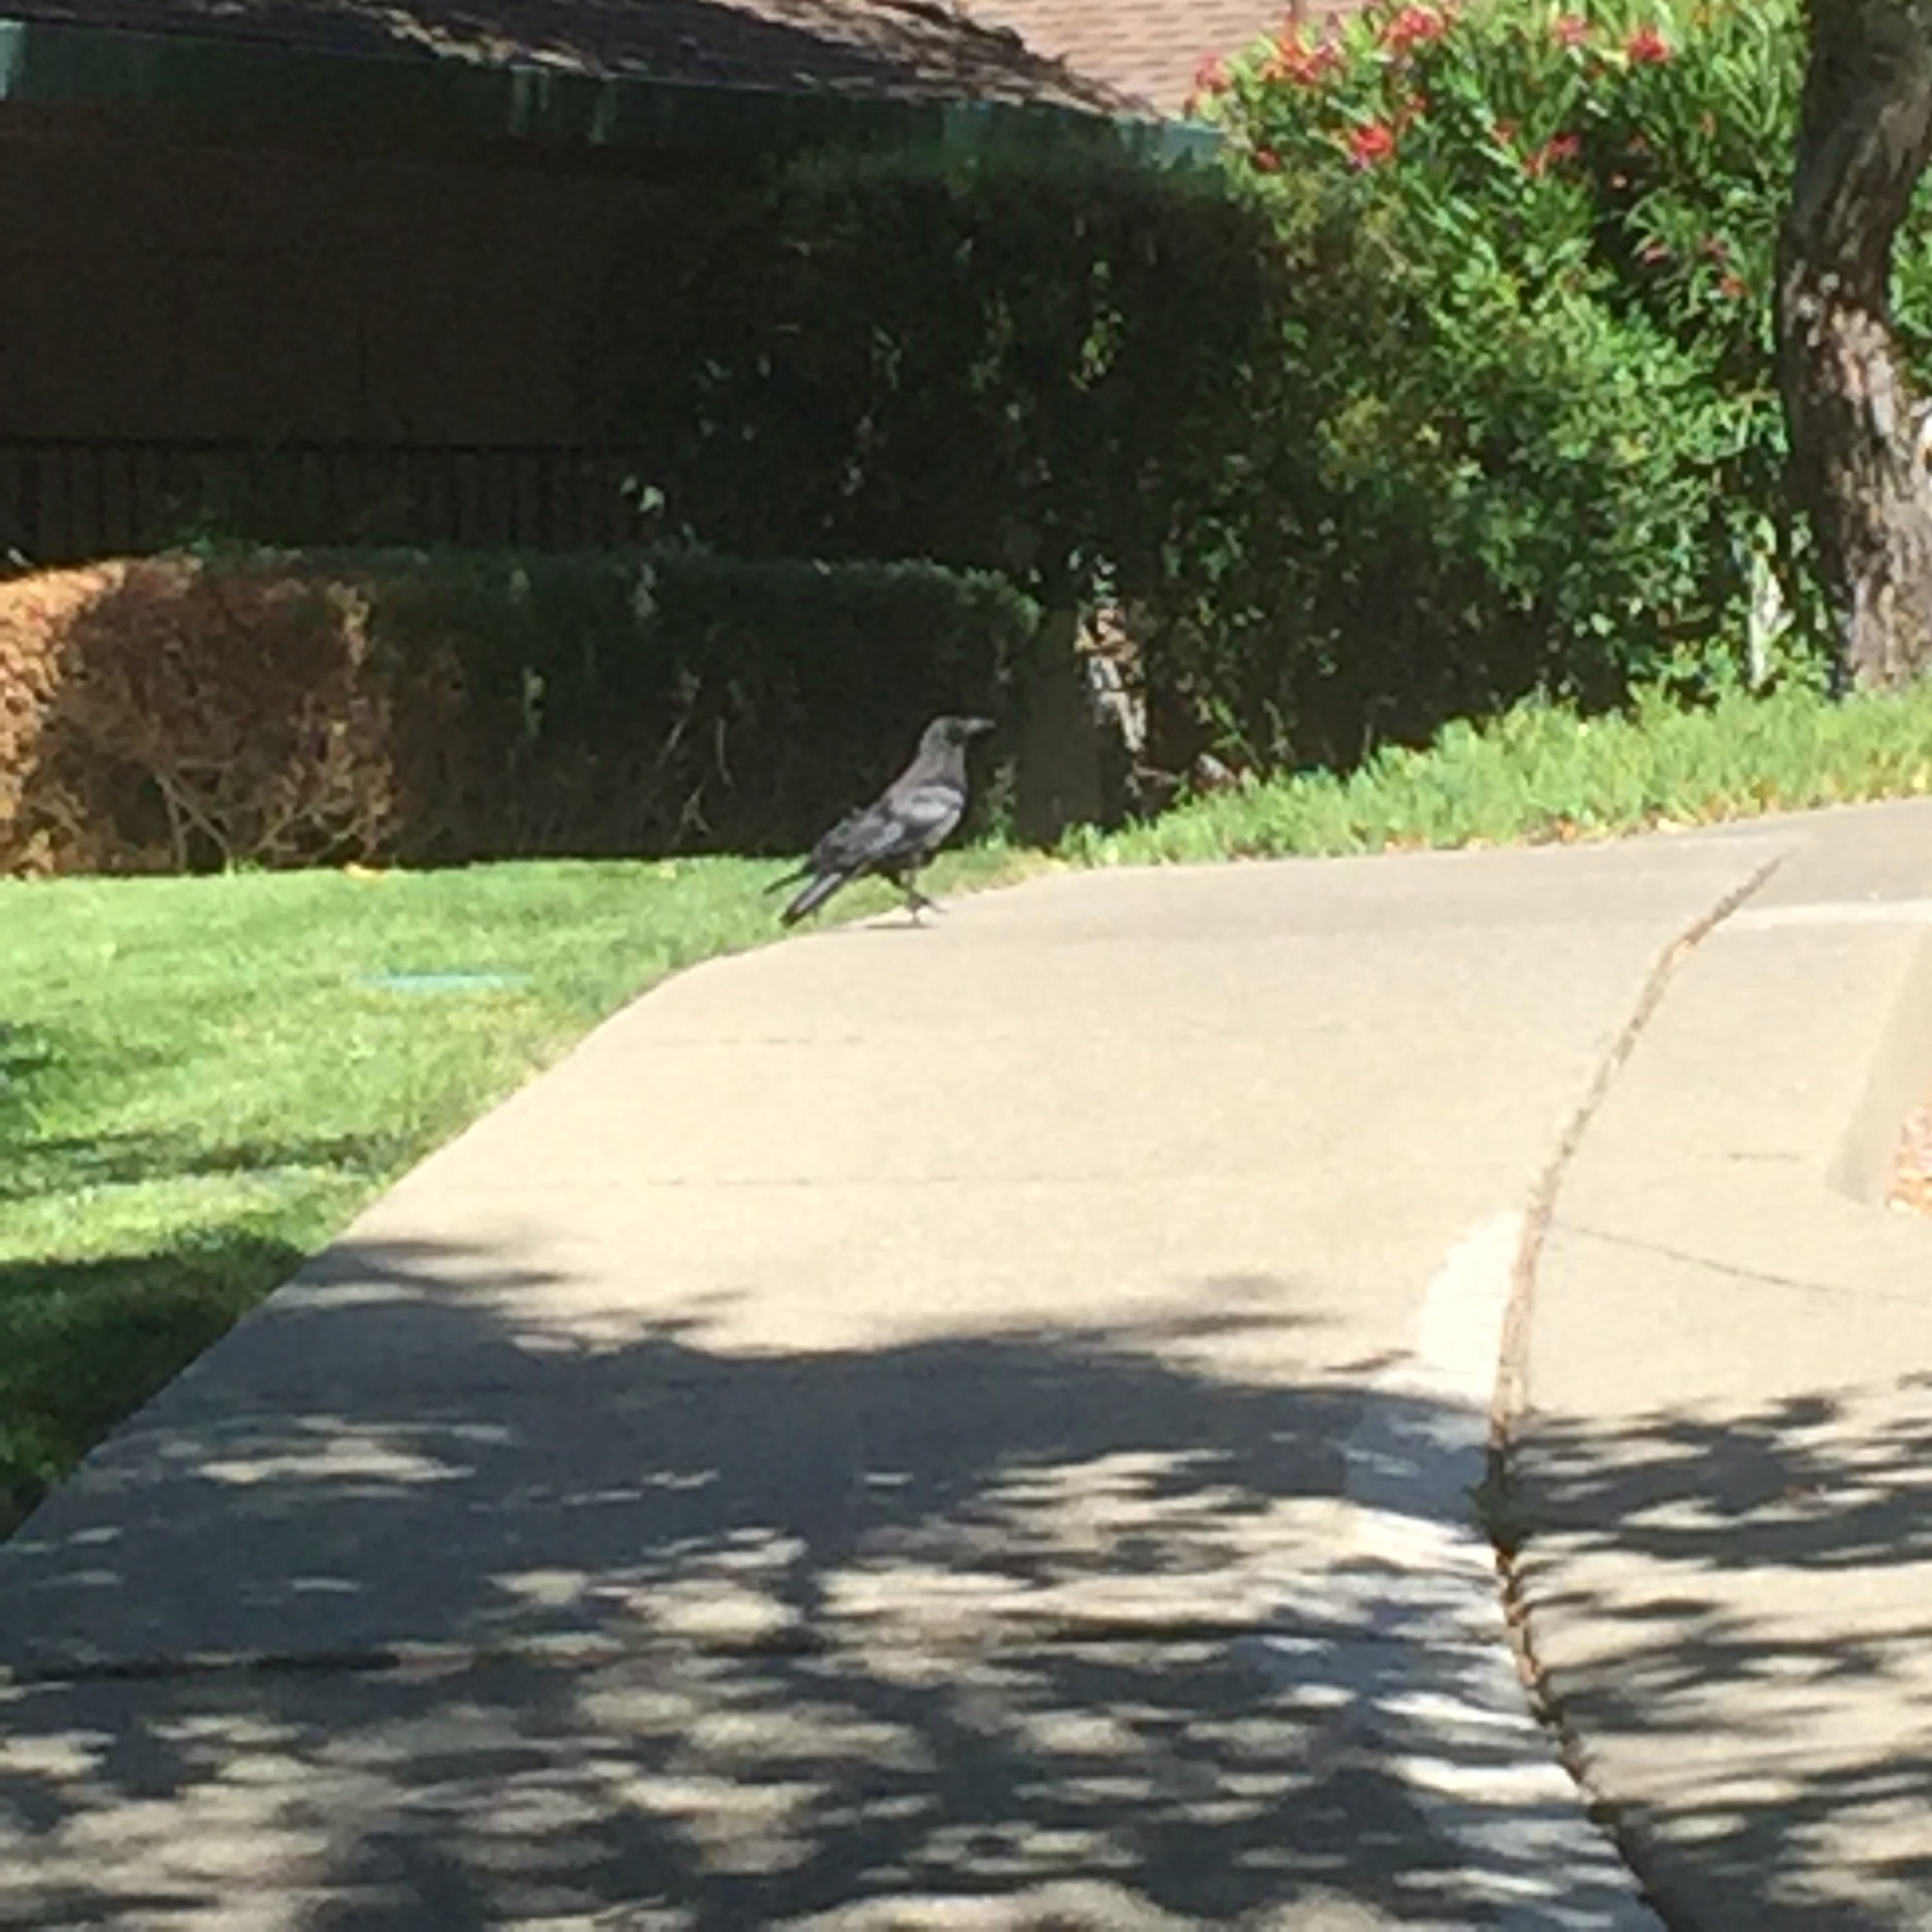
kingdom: Animalia
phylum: Chordata
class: Aves
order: Passeriformes
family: Corvidae
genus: Corvus
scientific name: Corvus brachyrhynchos
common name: American crow
